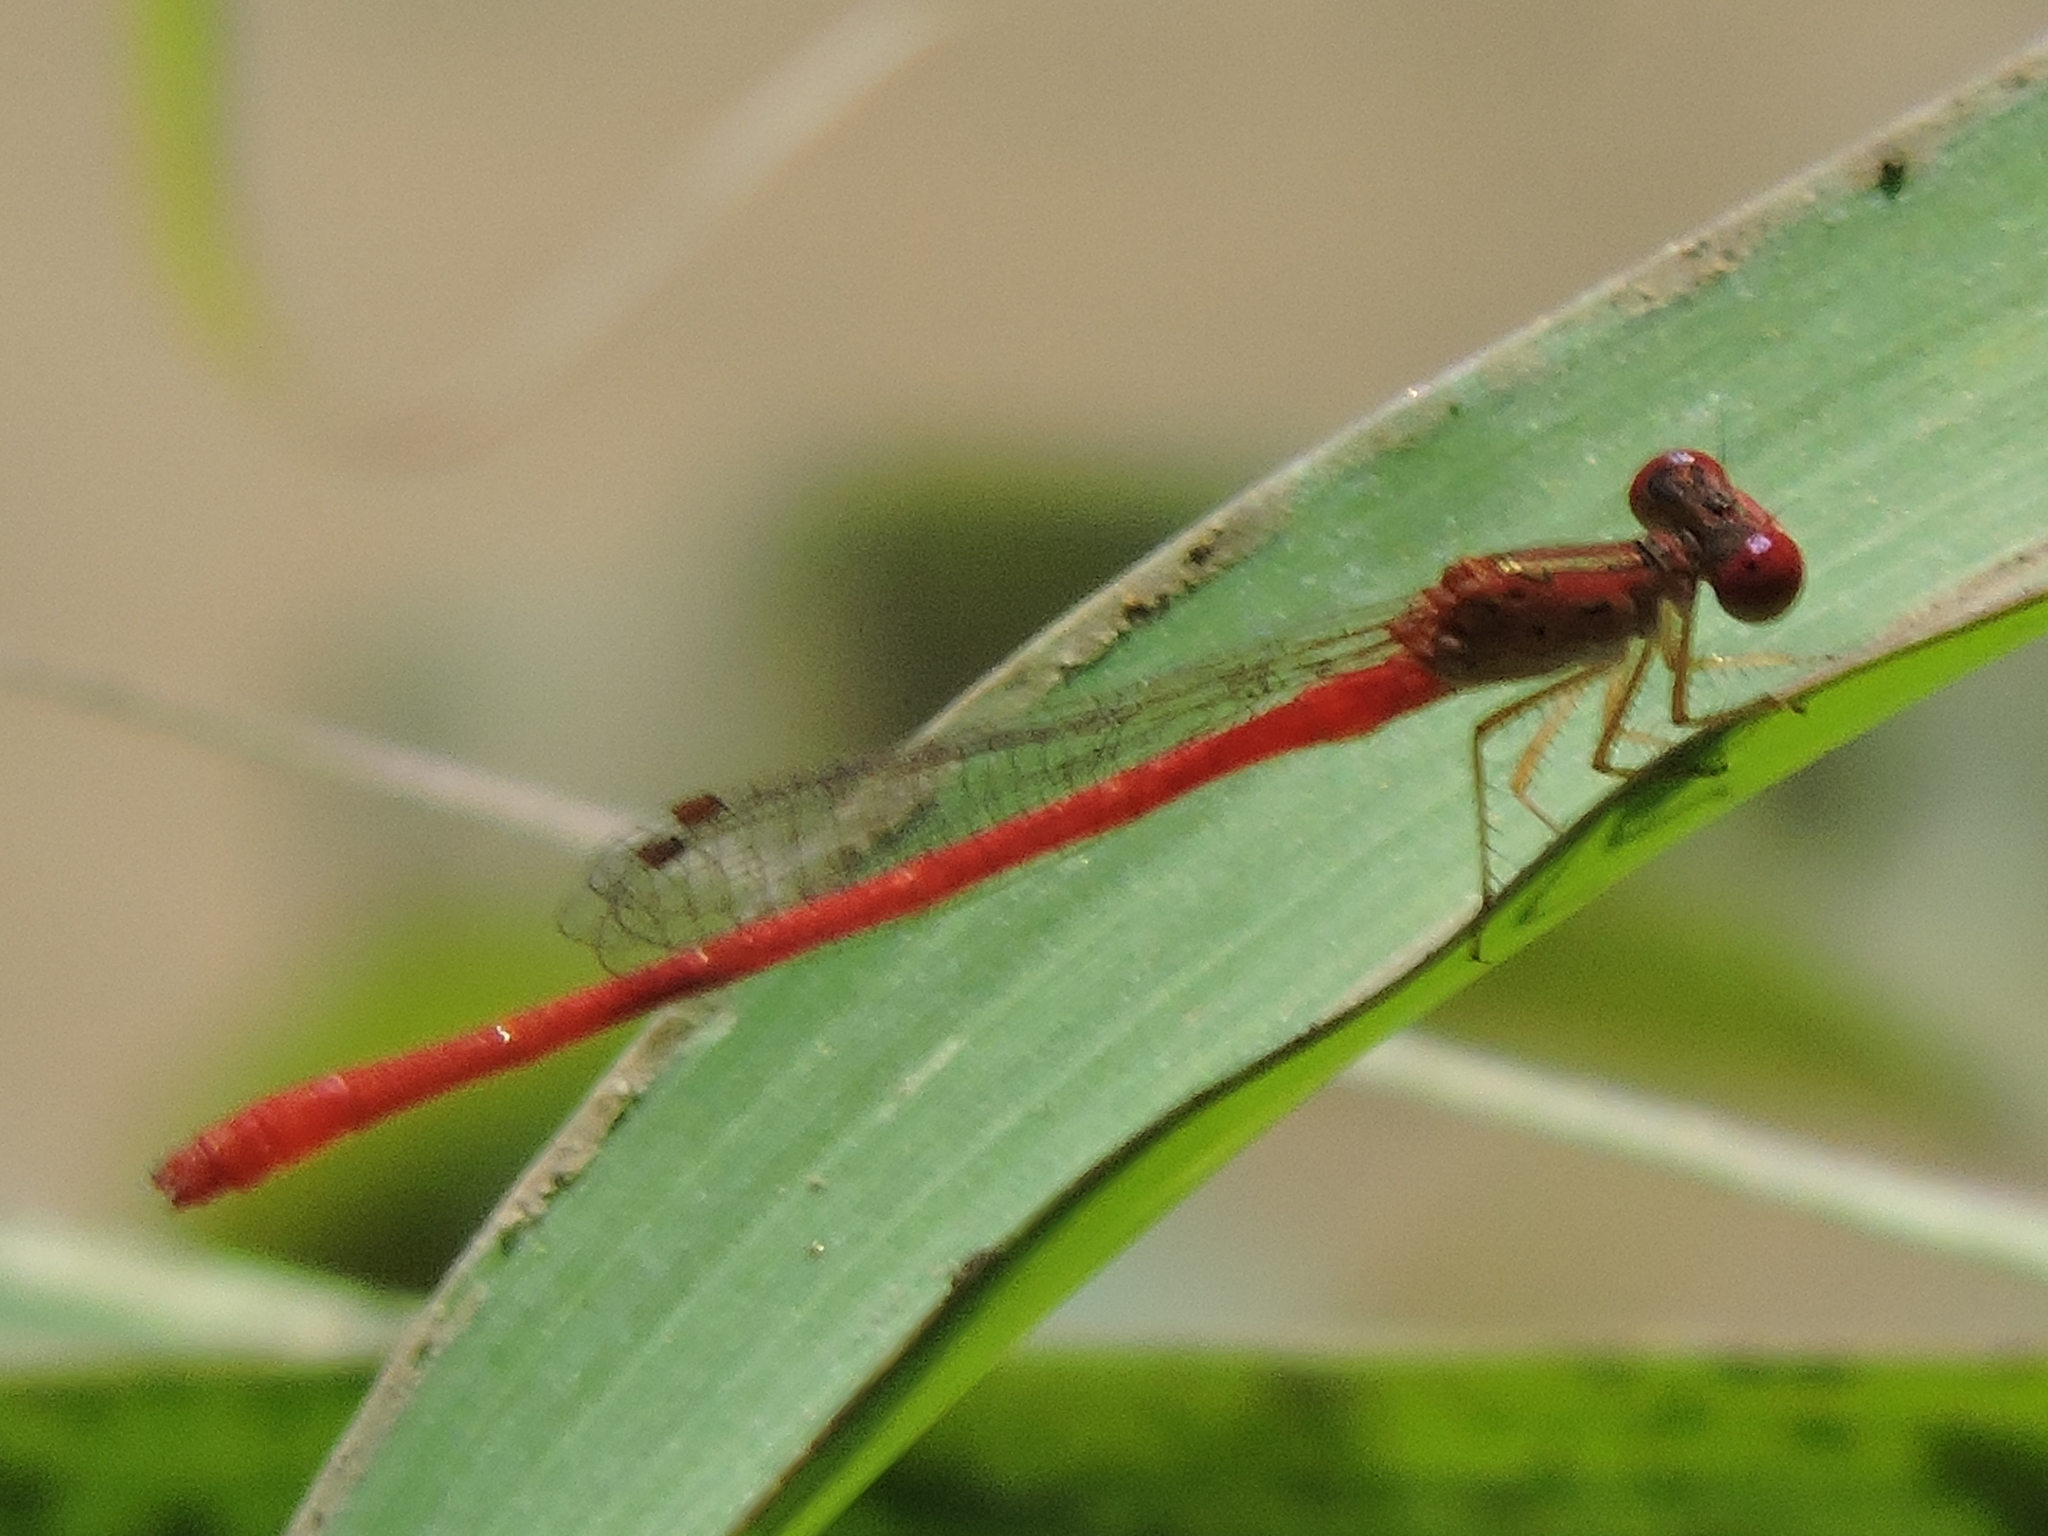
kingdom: Animalia
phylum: Arthropoda
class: Insecta
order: Odonata
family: Coenagrionidae
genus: Telebasis
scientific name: Telebasis salva
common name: Desert firetail
